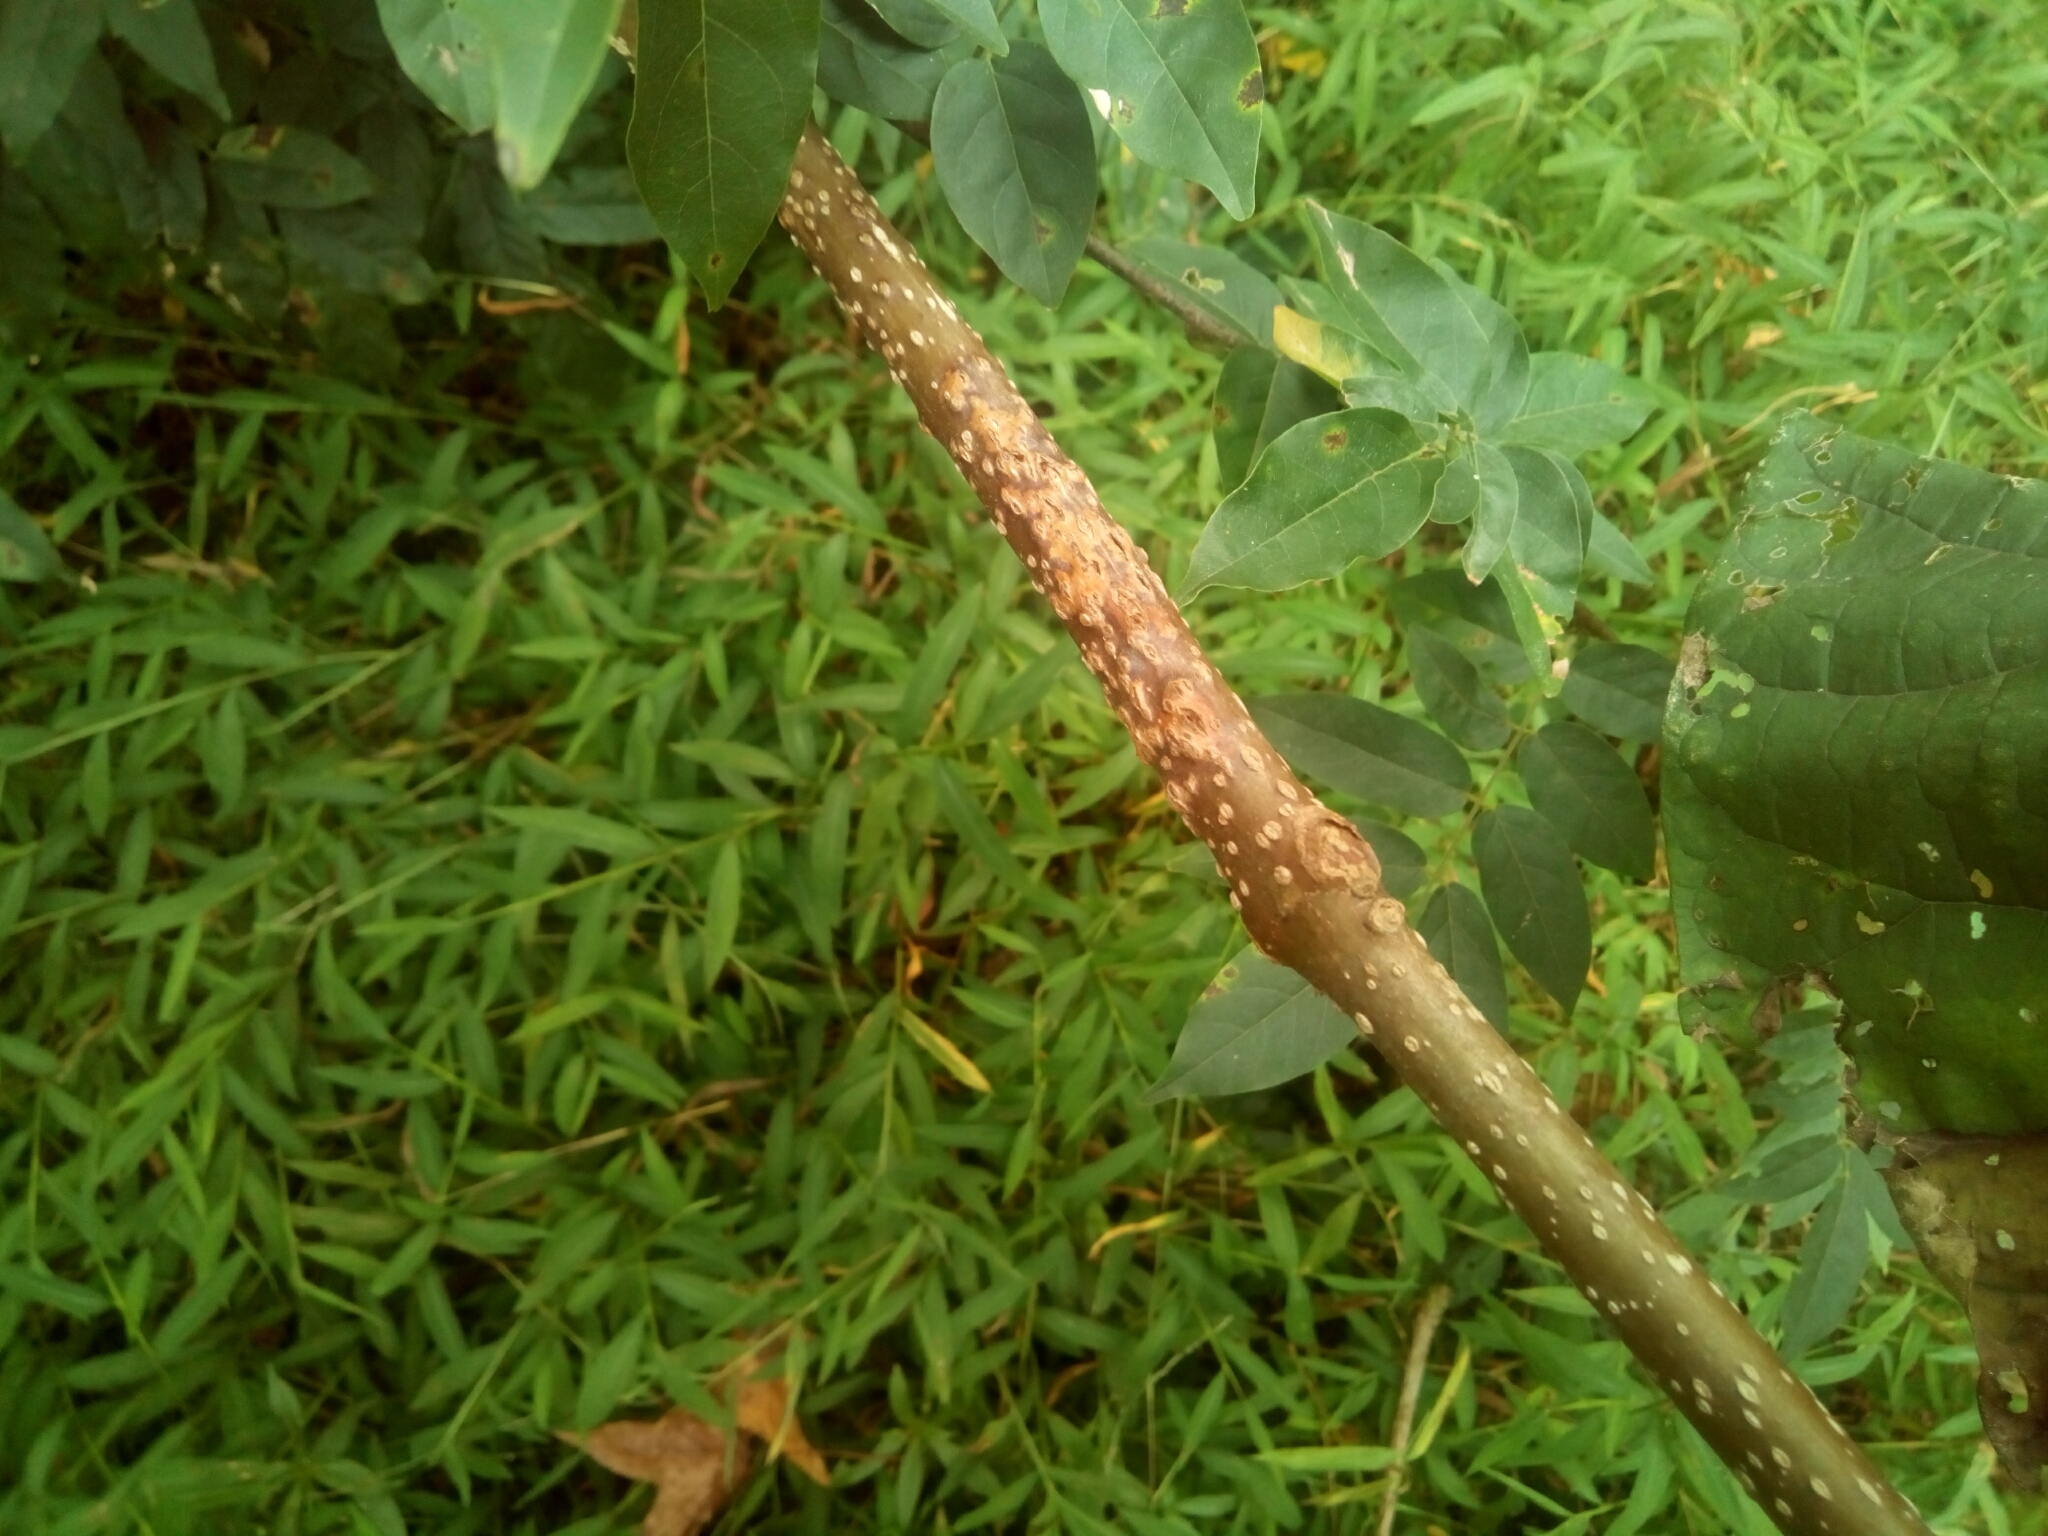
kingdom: Plantae
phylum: Tracheophyta
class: Magnoliopsida
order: Lamiales
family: Paulowniaceae
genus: Paulownia
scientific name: Paulownia tomentosa
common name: Foxglove-tree
